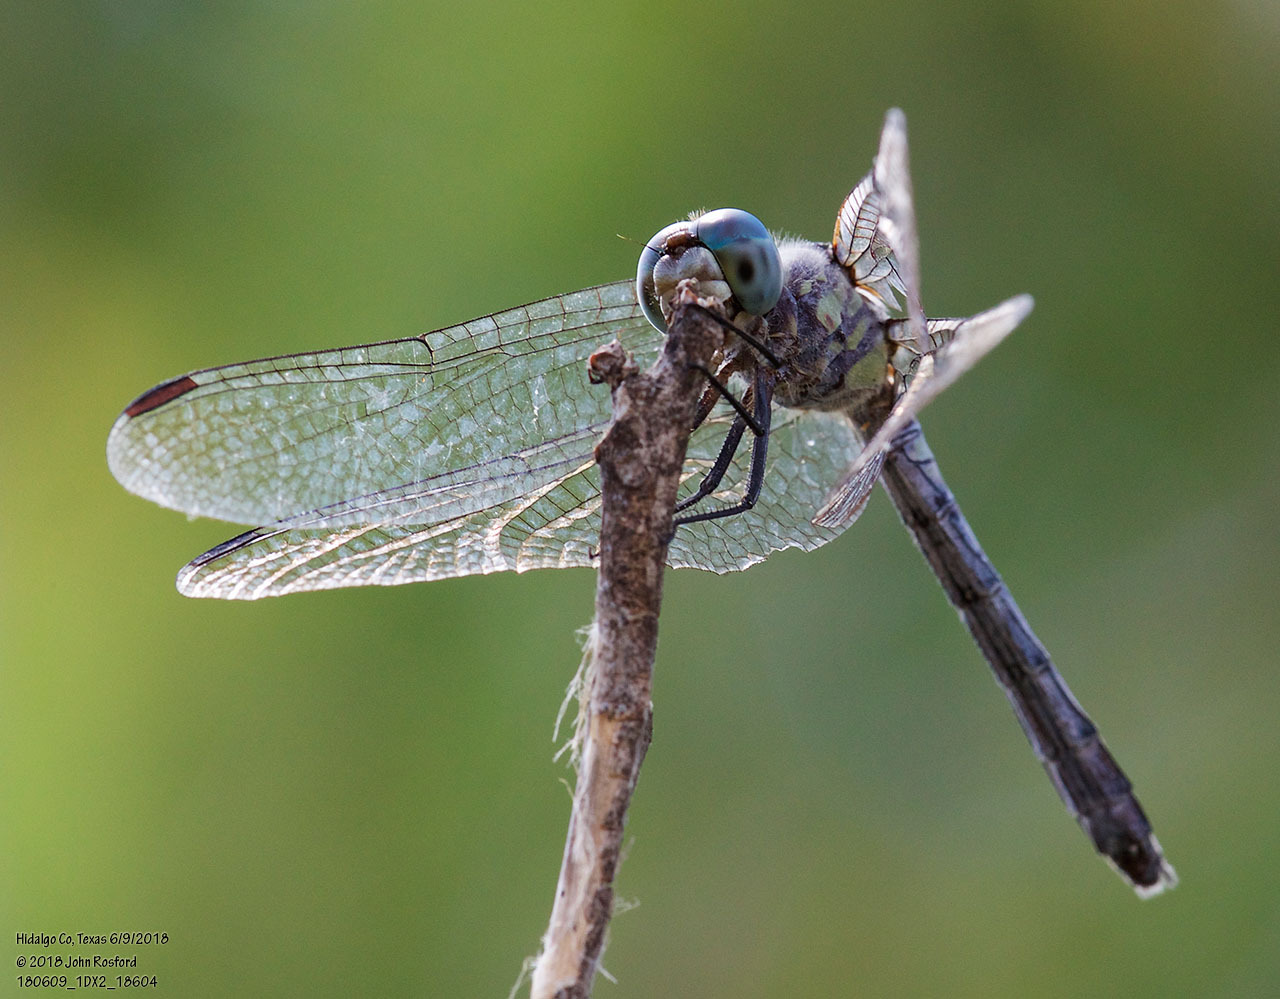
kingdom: Animalia
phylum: Arthropoda
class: Insecta
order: Odonata
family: Libellulidae
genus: Micrathyria
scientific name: Micrathyria hagenii
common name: Thornbush dasher
